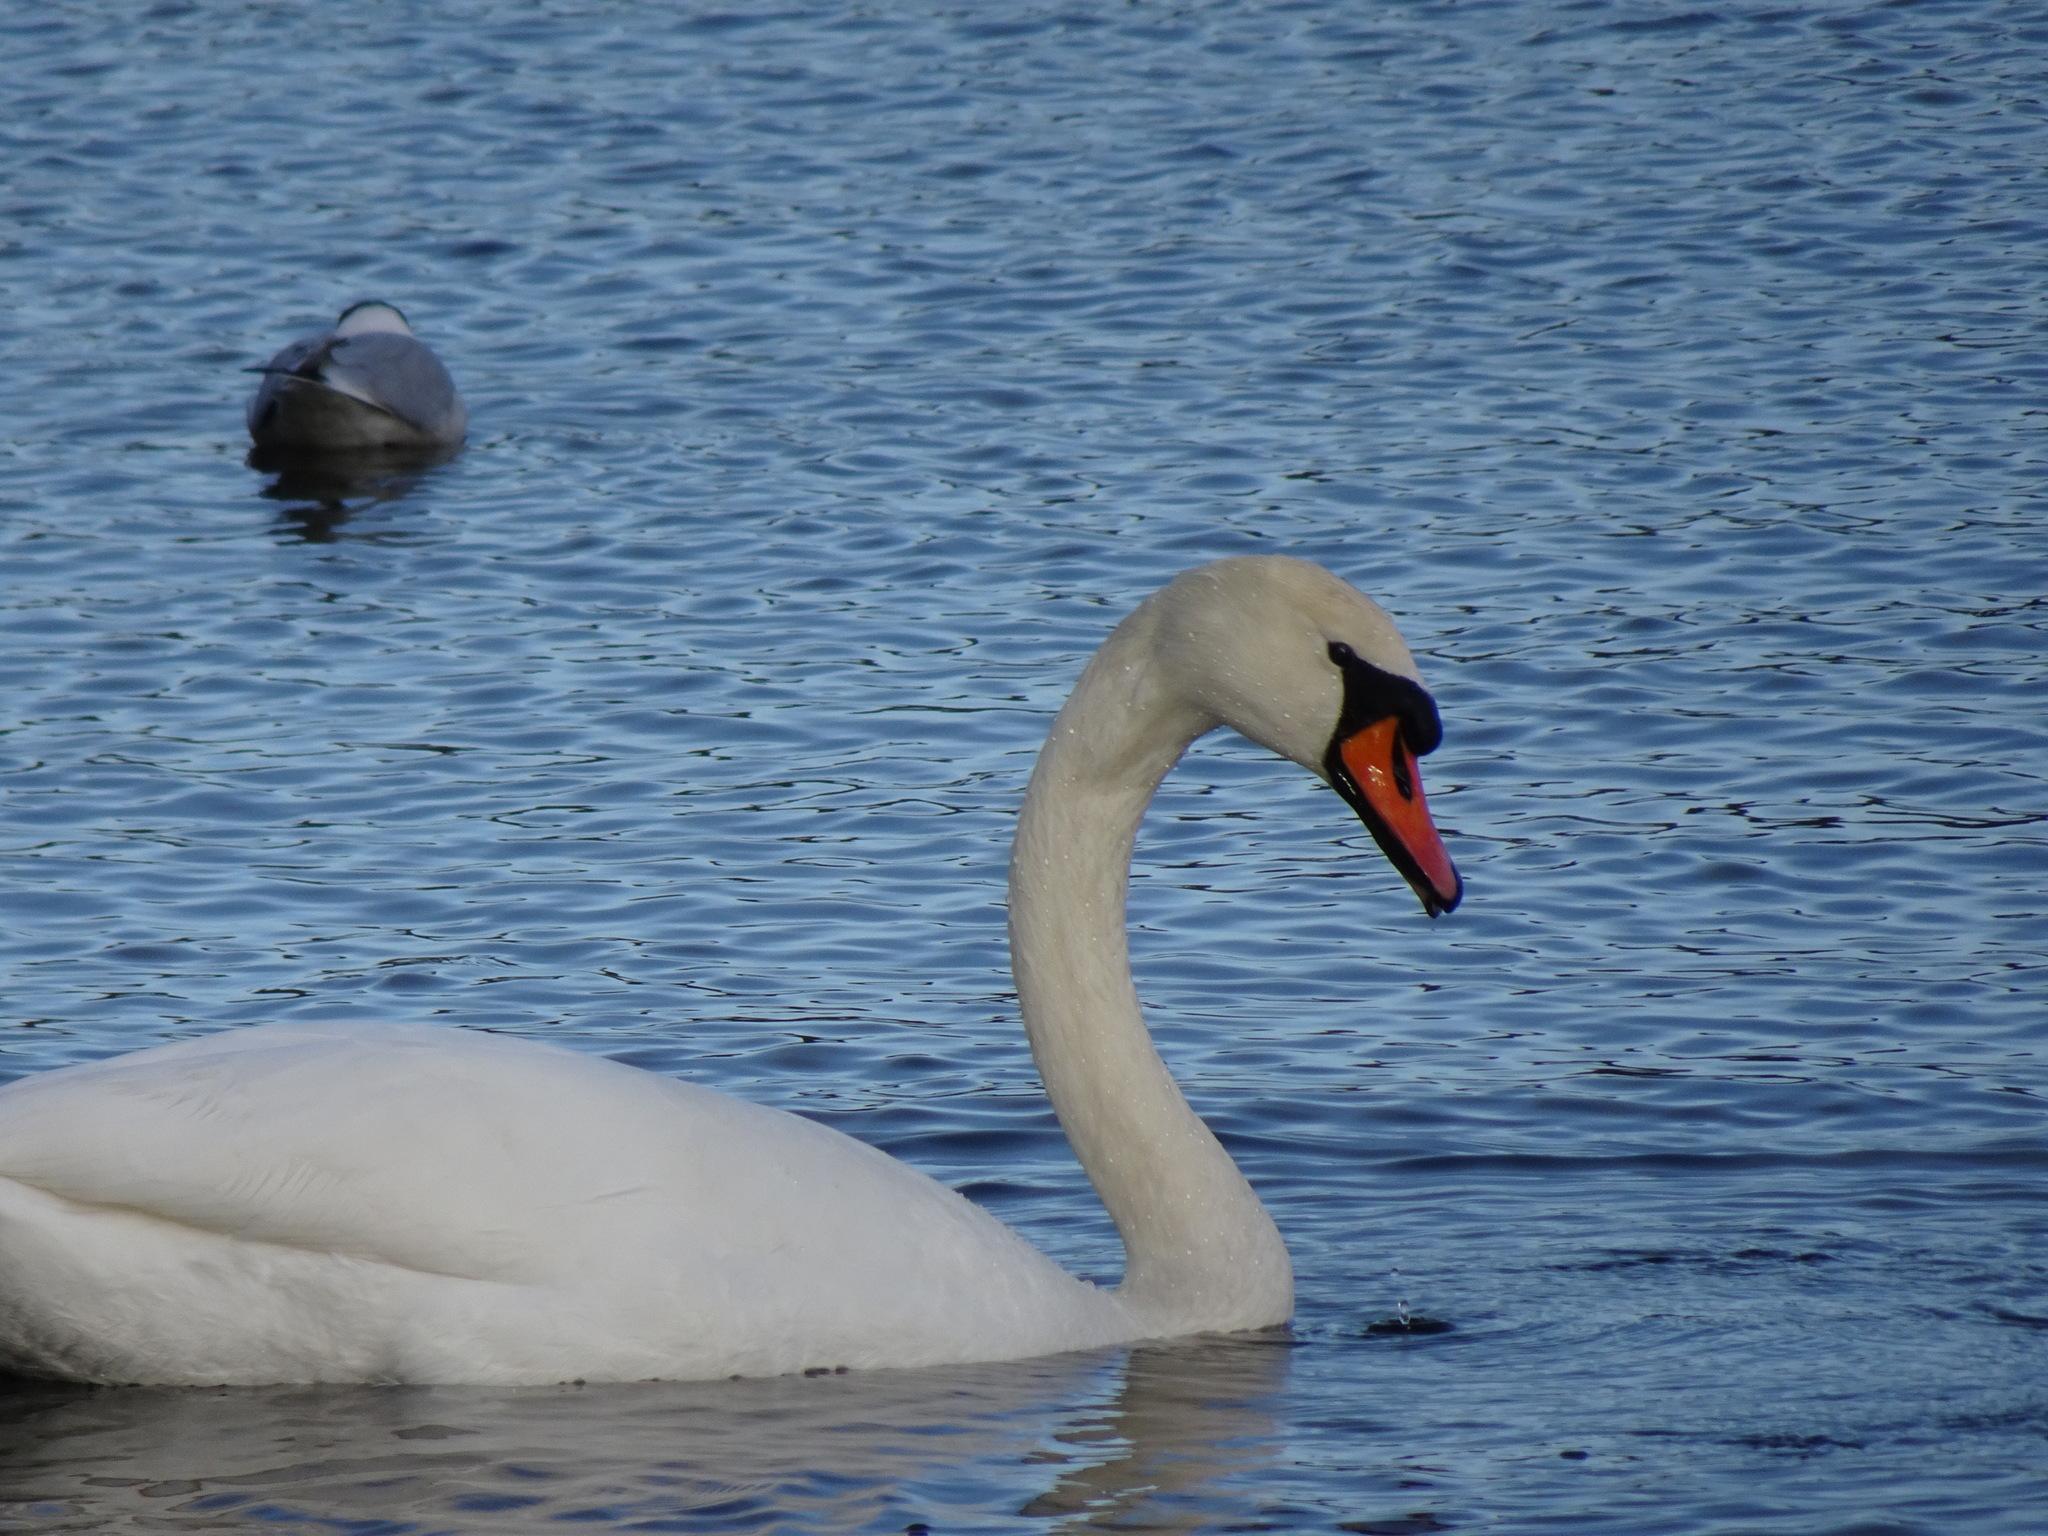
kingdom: Animalia
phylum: Chordata
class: Aves
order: Anseriformes
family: Anatidae
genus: Cygnus
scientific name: Cygnus olor
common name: Mute swan
